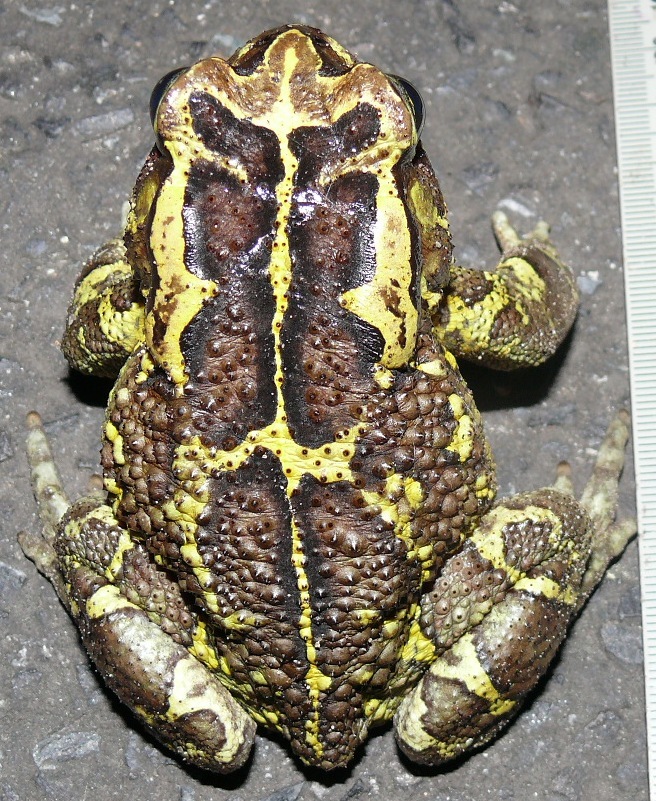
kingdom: Animalia
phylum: Chordata
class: Amphibia
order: Anura
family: Bufonidae
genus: Sclerophrys
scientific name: Sclerophrys pantherina
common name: Panther toad
